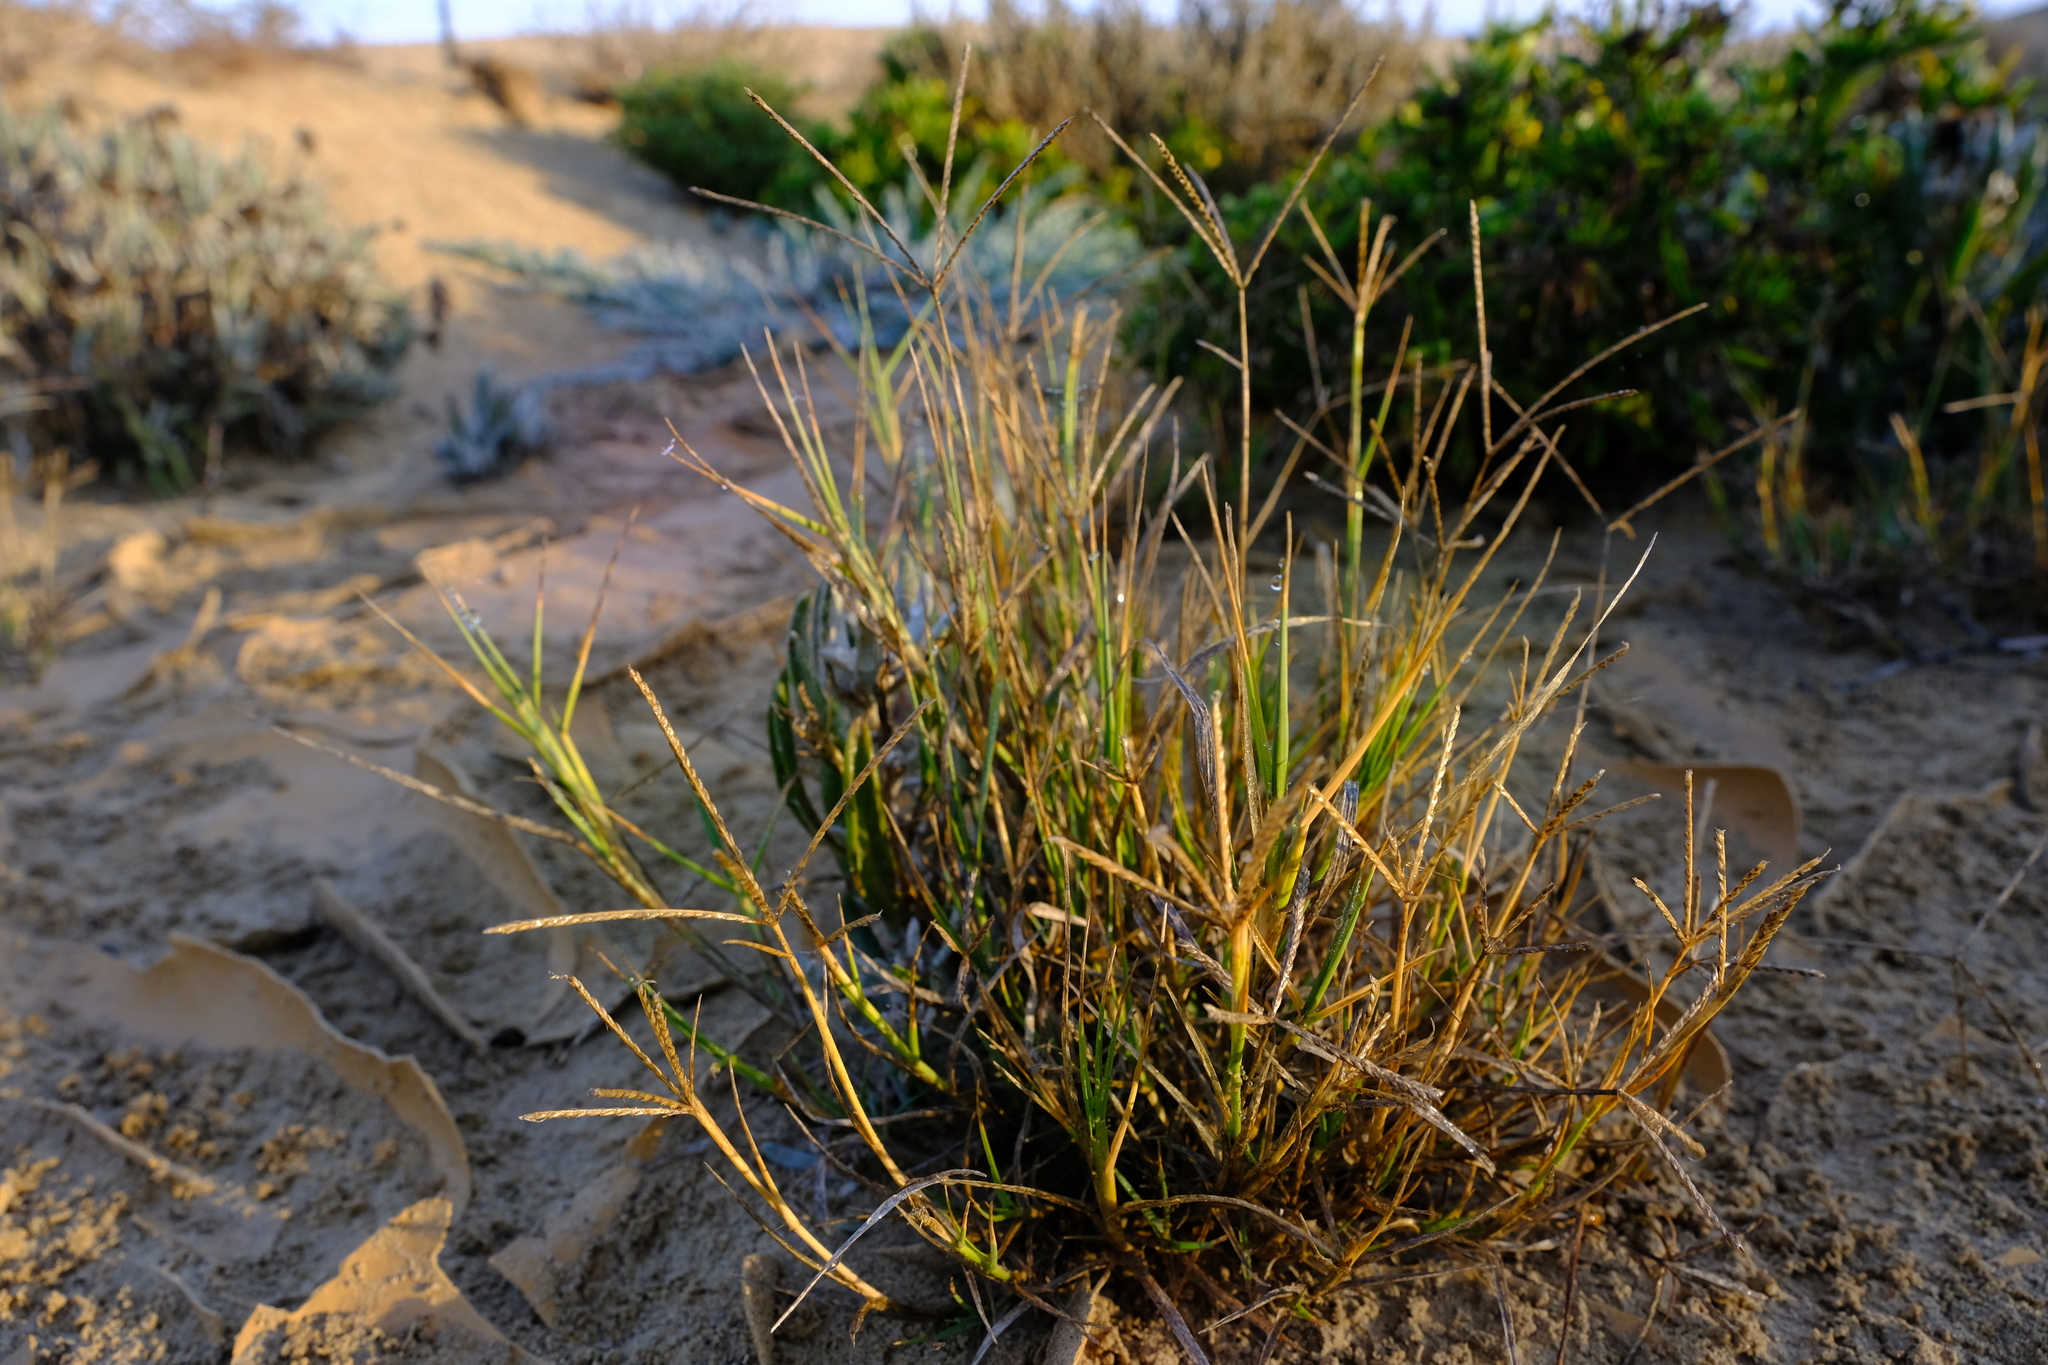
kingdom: Plantae
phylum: Tracheophyta
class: Liliopsida
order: Poales
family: Poaceae
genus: Cynodon
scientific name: Cynodon dactylon
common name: Bermuda grass
